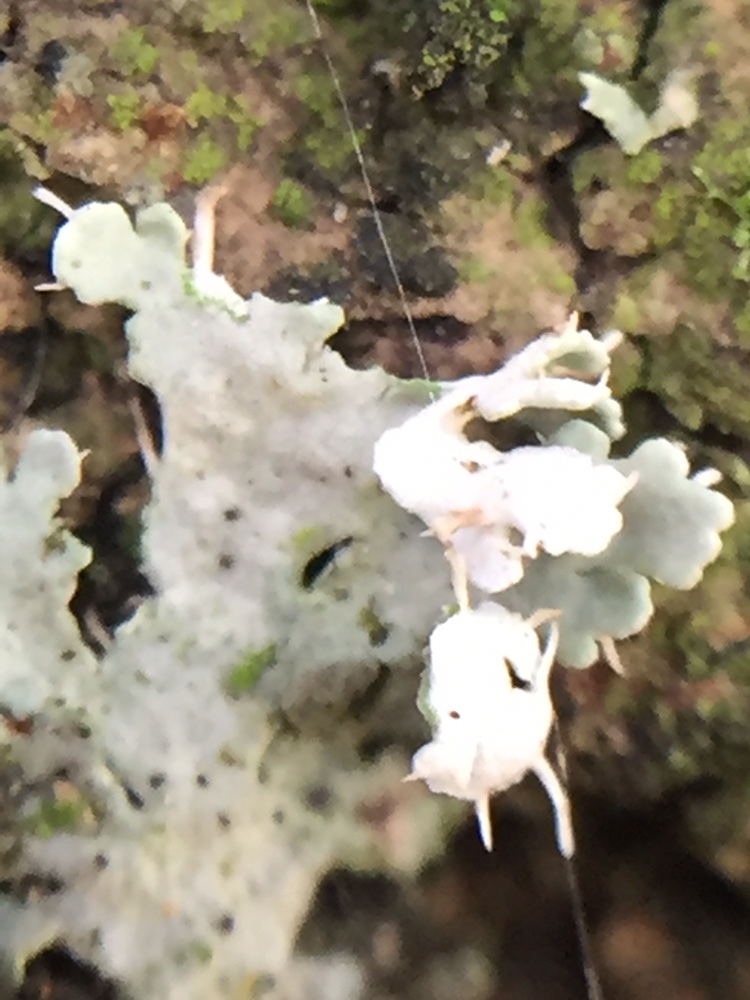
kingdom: Fungi
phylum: Ascomycota
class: Lecanoromycetes
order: Caliciales
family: Physciaceae
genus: Heterodermia
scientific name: Heterodermia speciosa
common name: Powdered fringe lichen
